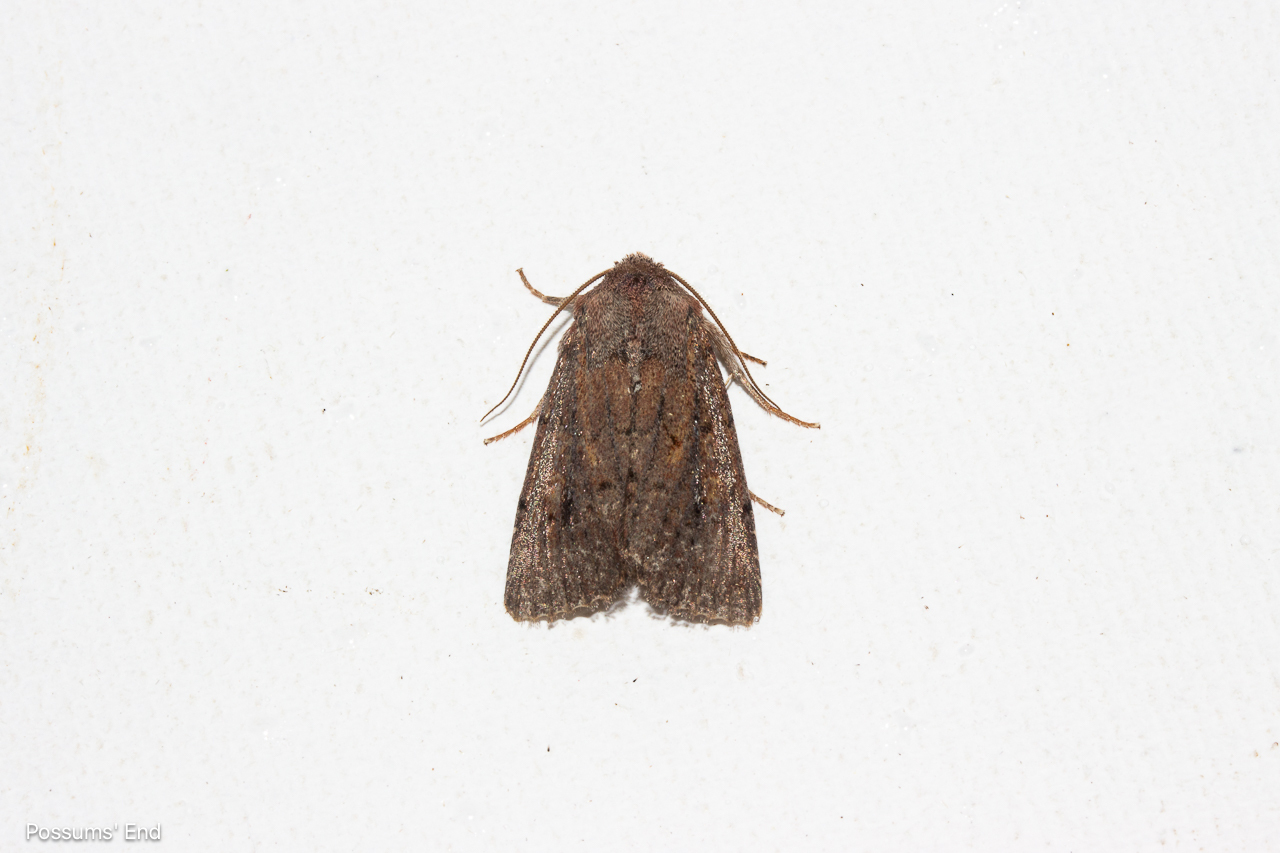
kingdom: Animalia
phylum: Arthropoda
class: Insecta
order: Lepidoptera
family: Noctuidae
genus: Ichneutica
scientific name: Ichneutica
